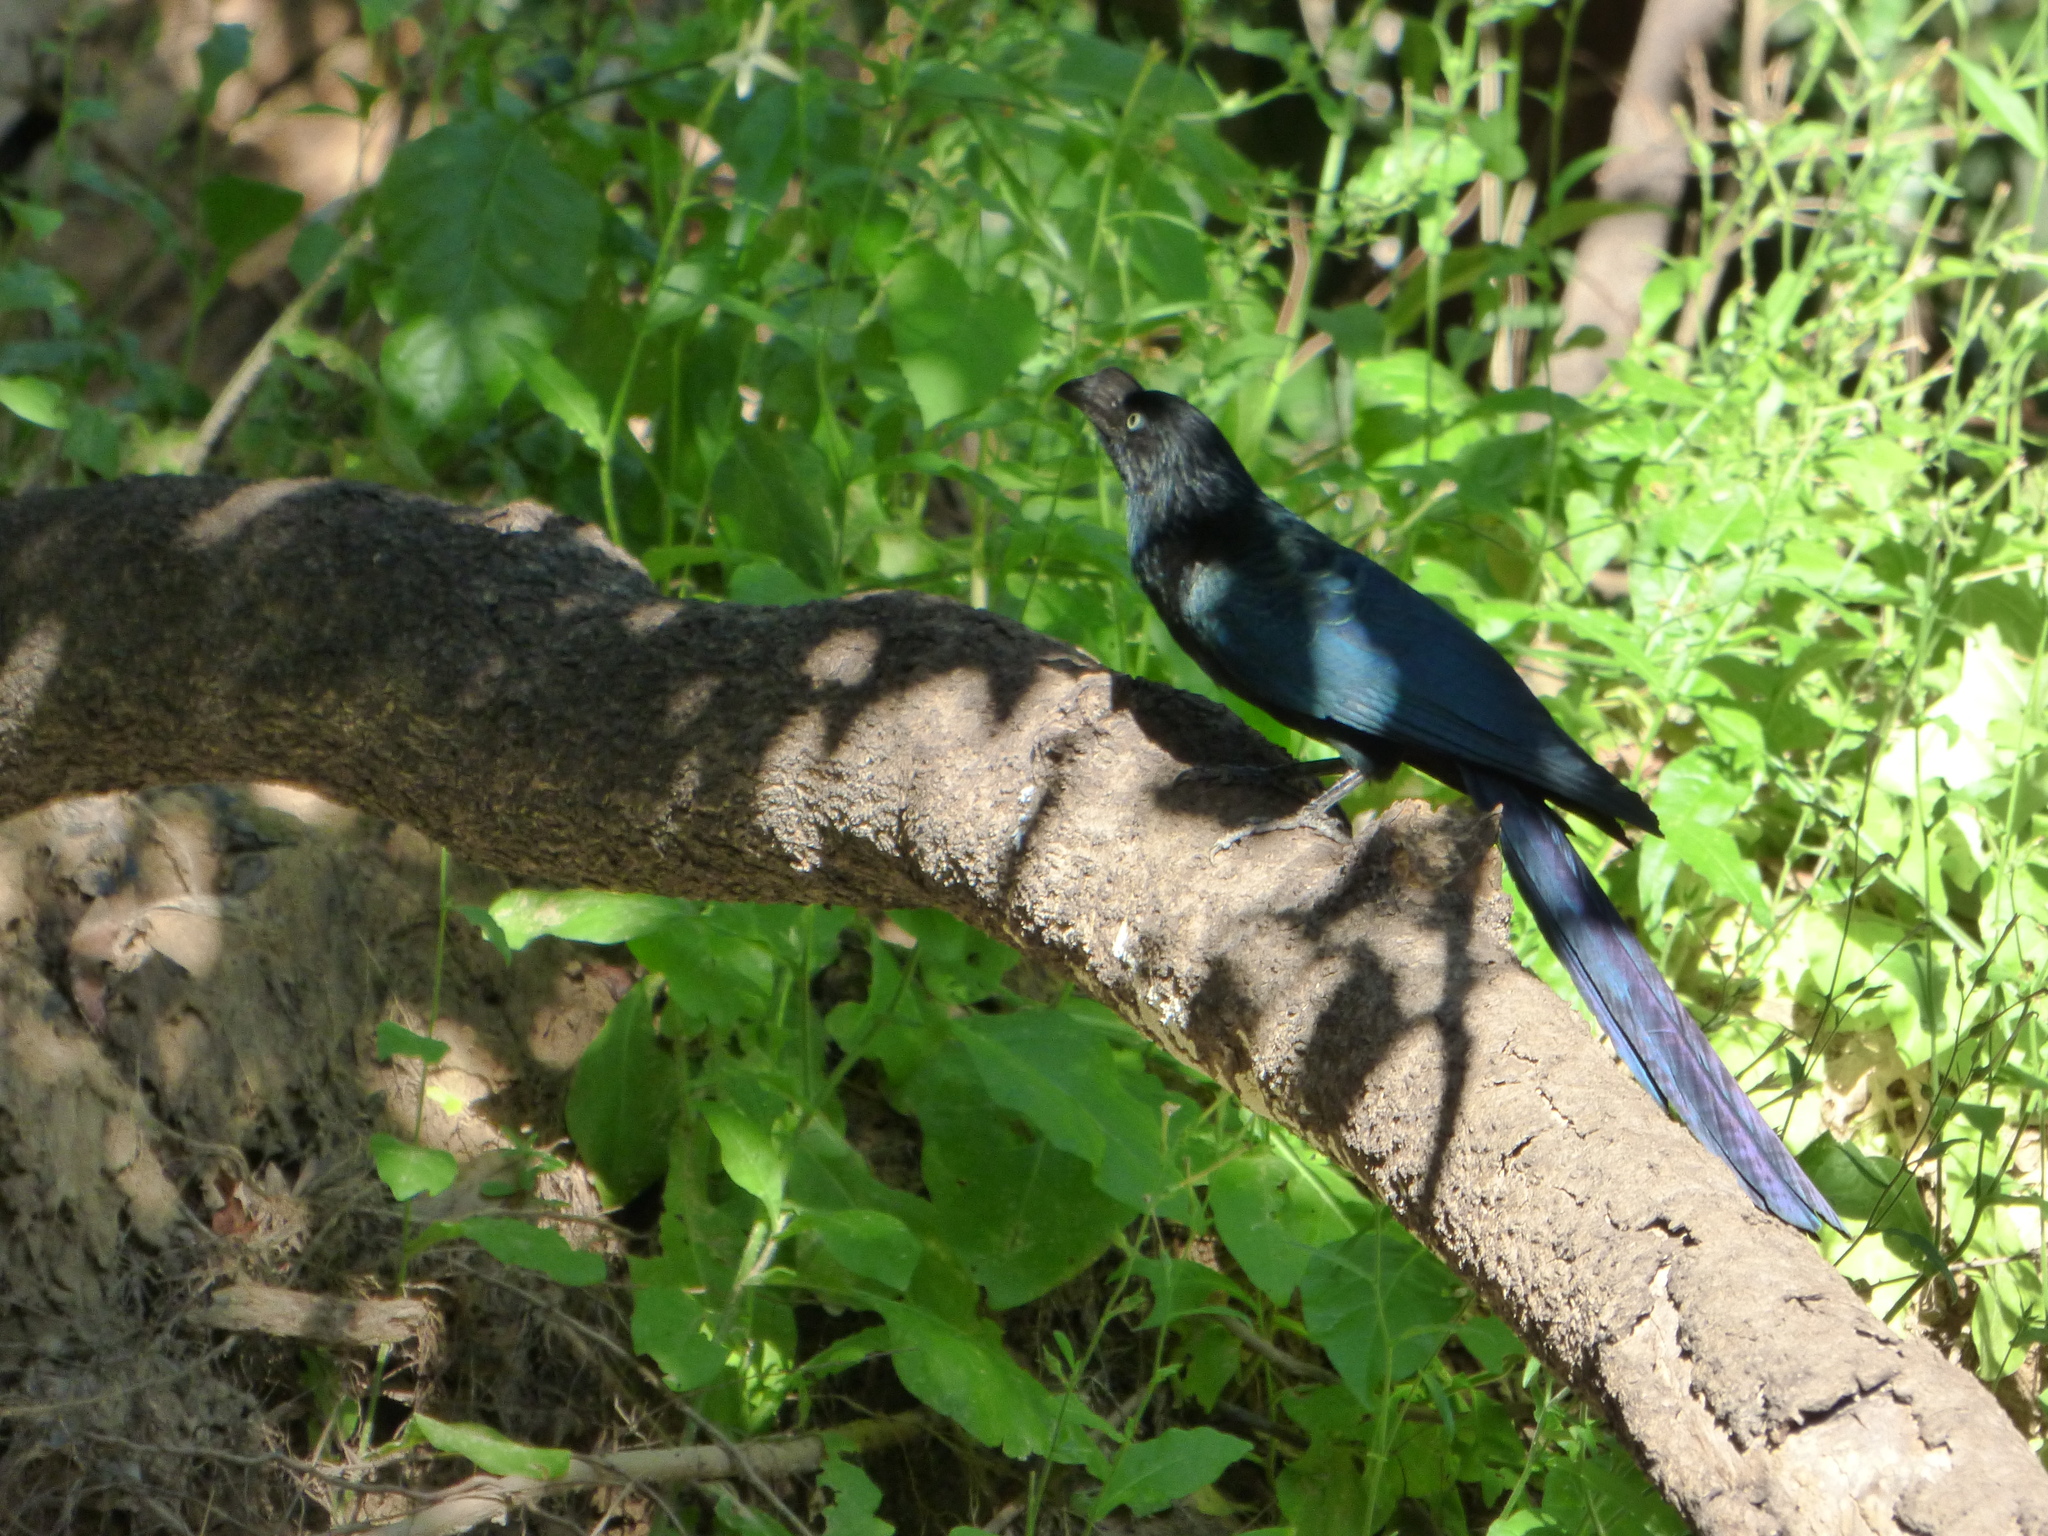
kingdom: Animalia
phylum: Chordata
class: Aves
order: Cuculiformes
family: Cuculidae
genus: Crotophaga
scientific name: Crotophaga major
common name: Greater ani
